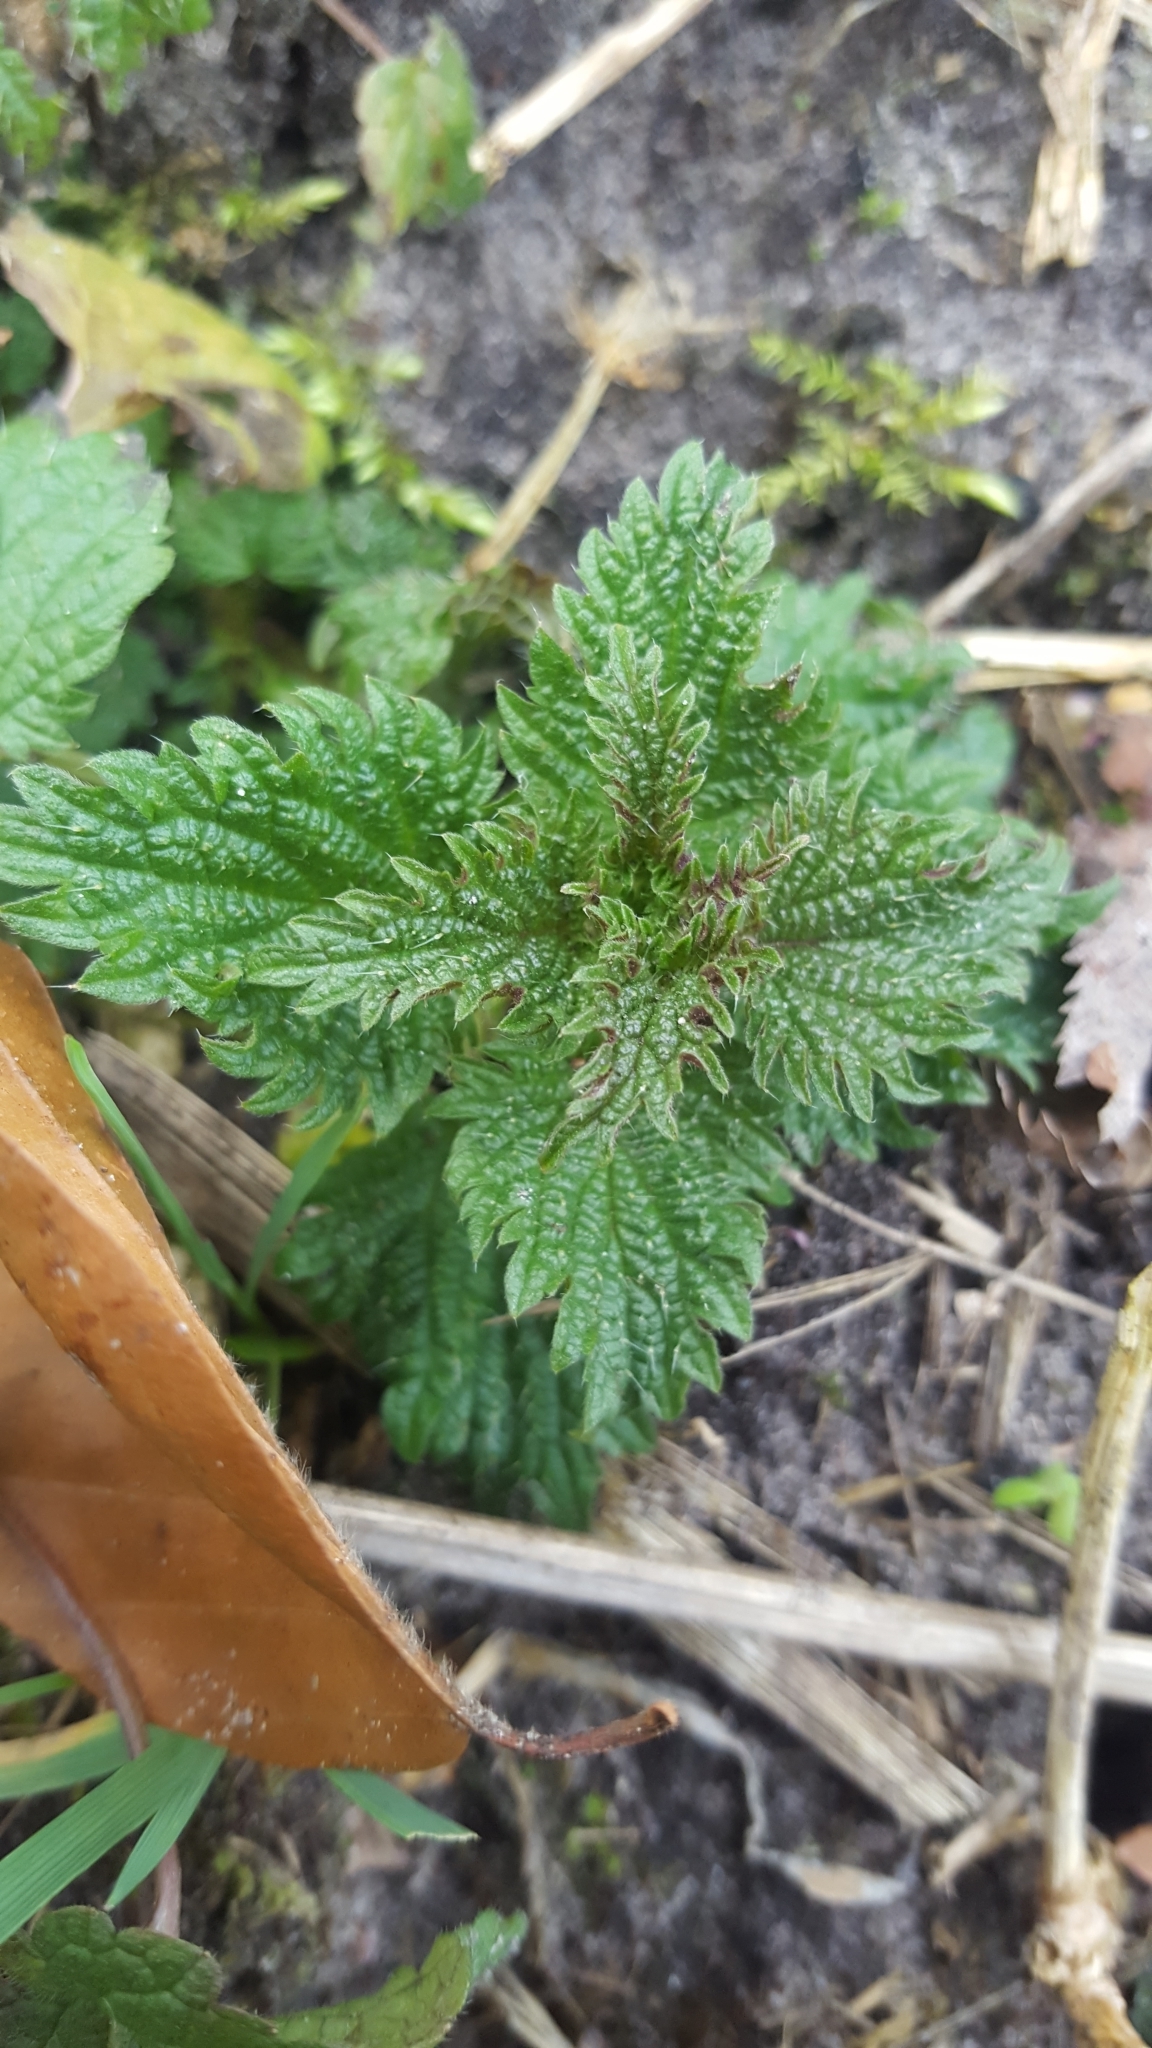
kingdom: Plantae
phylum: Tracheophyta
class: Magnoliopsida
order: Rosales
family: Urticaceae
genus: Urtica
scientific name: Urtica dioica
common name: Common nettle
